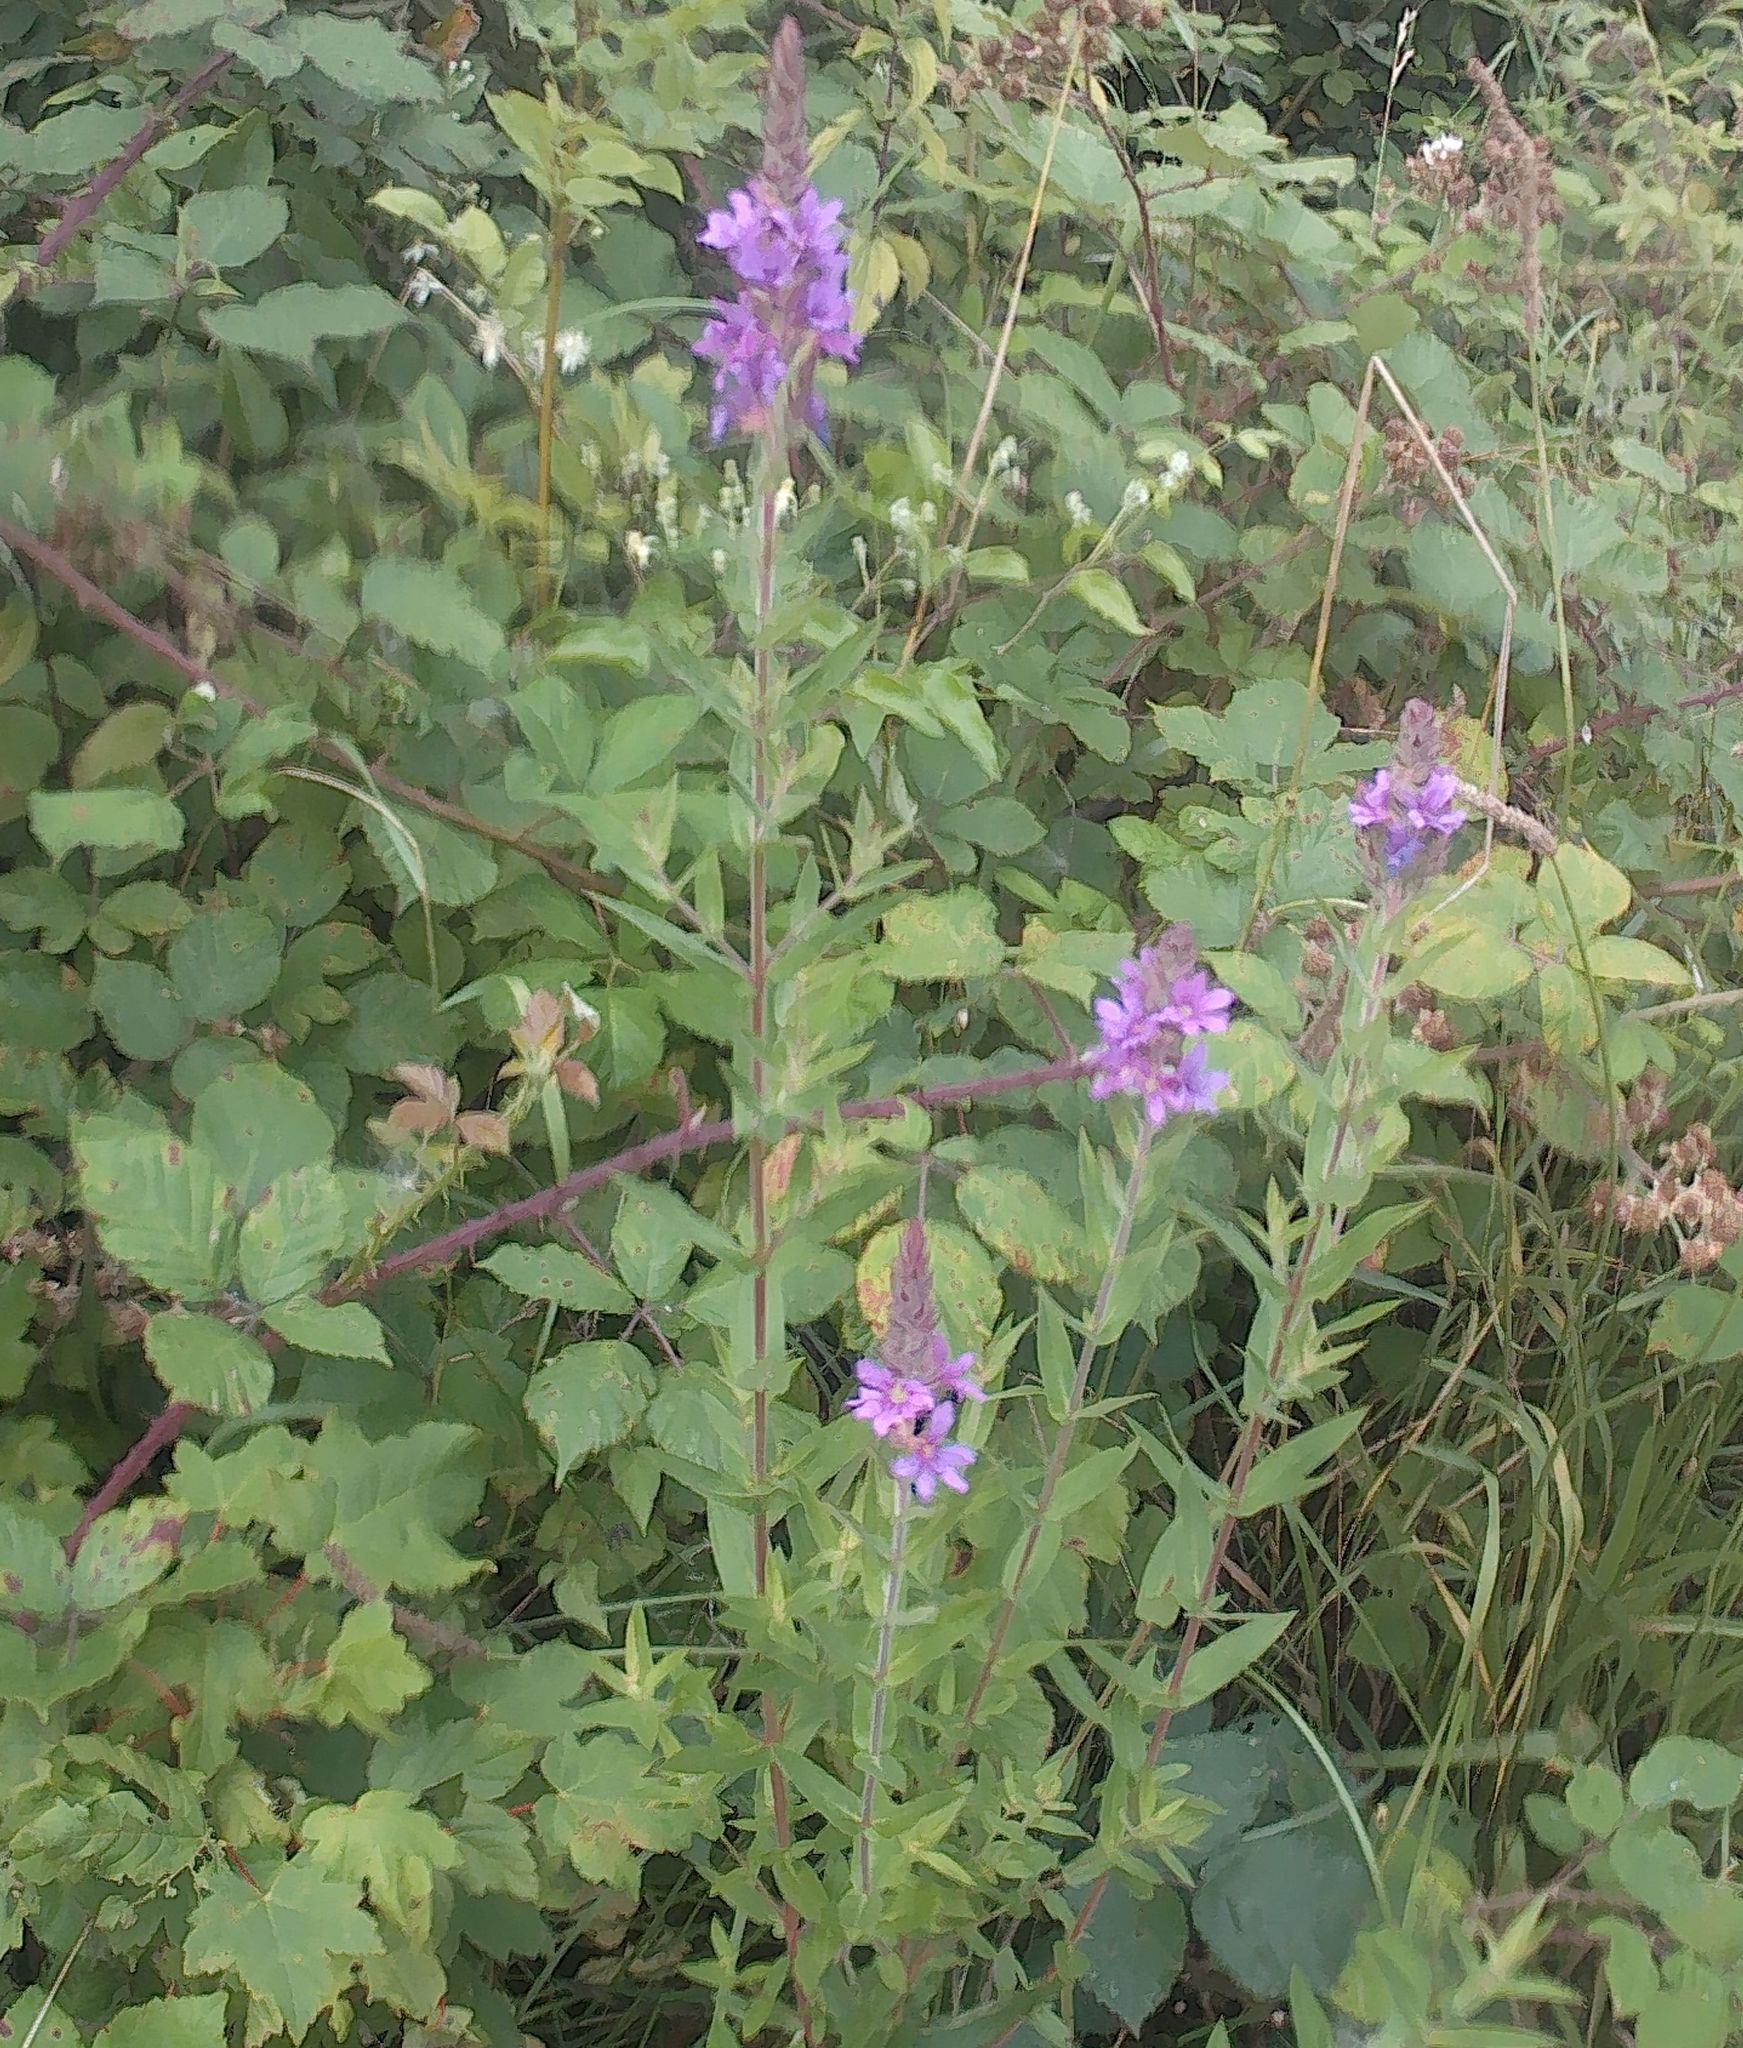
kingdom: Plantae
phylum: Tracheophyta
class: Magnoliopsida
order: Myrtales
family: Lythraceae
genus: Lythrum
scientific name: Lythrum salicaria
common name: Purple loosestrife
